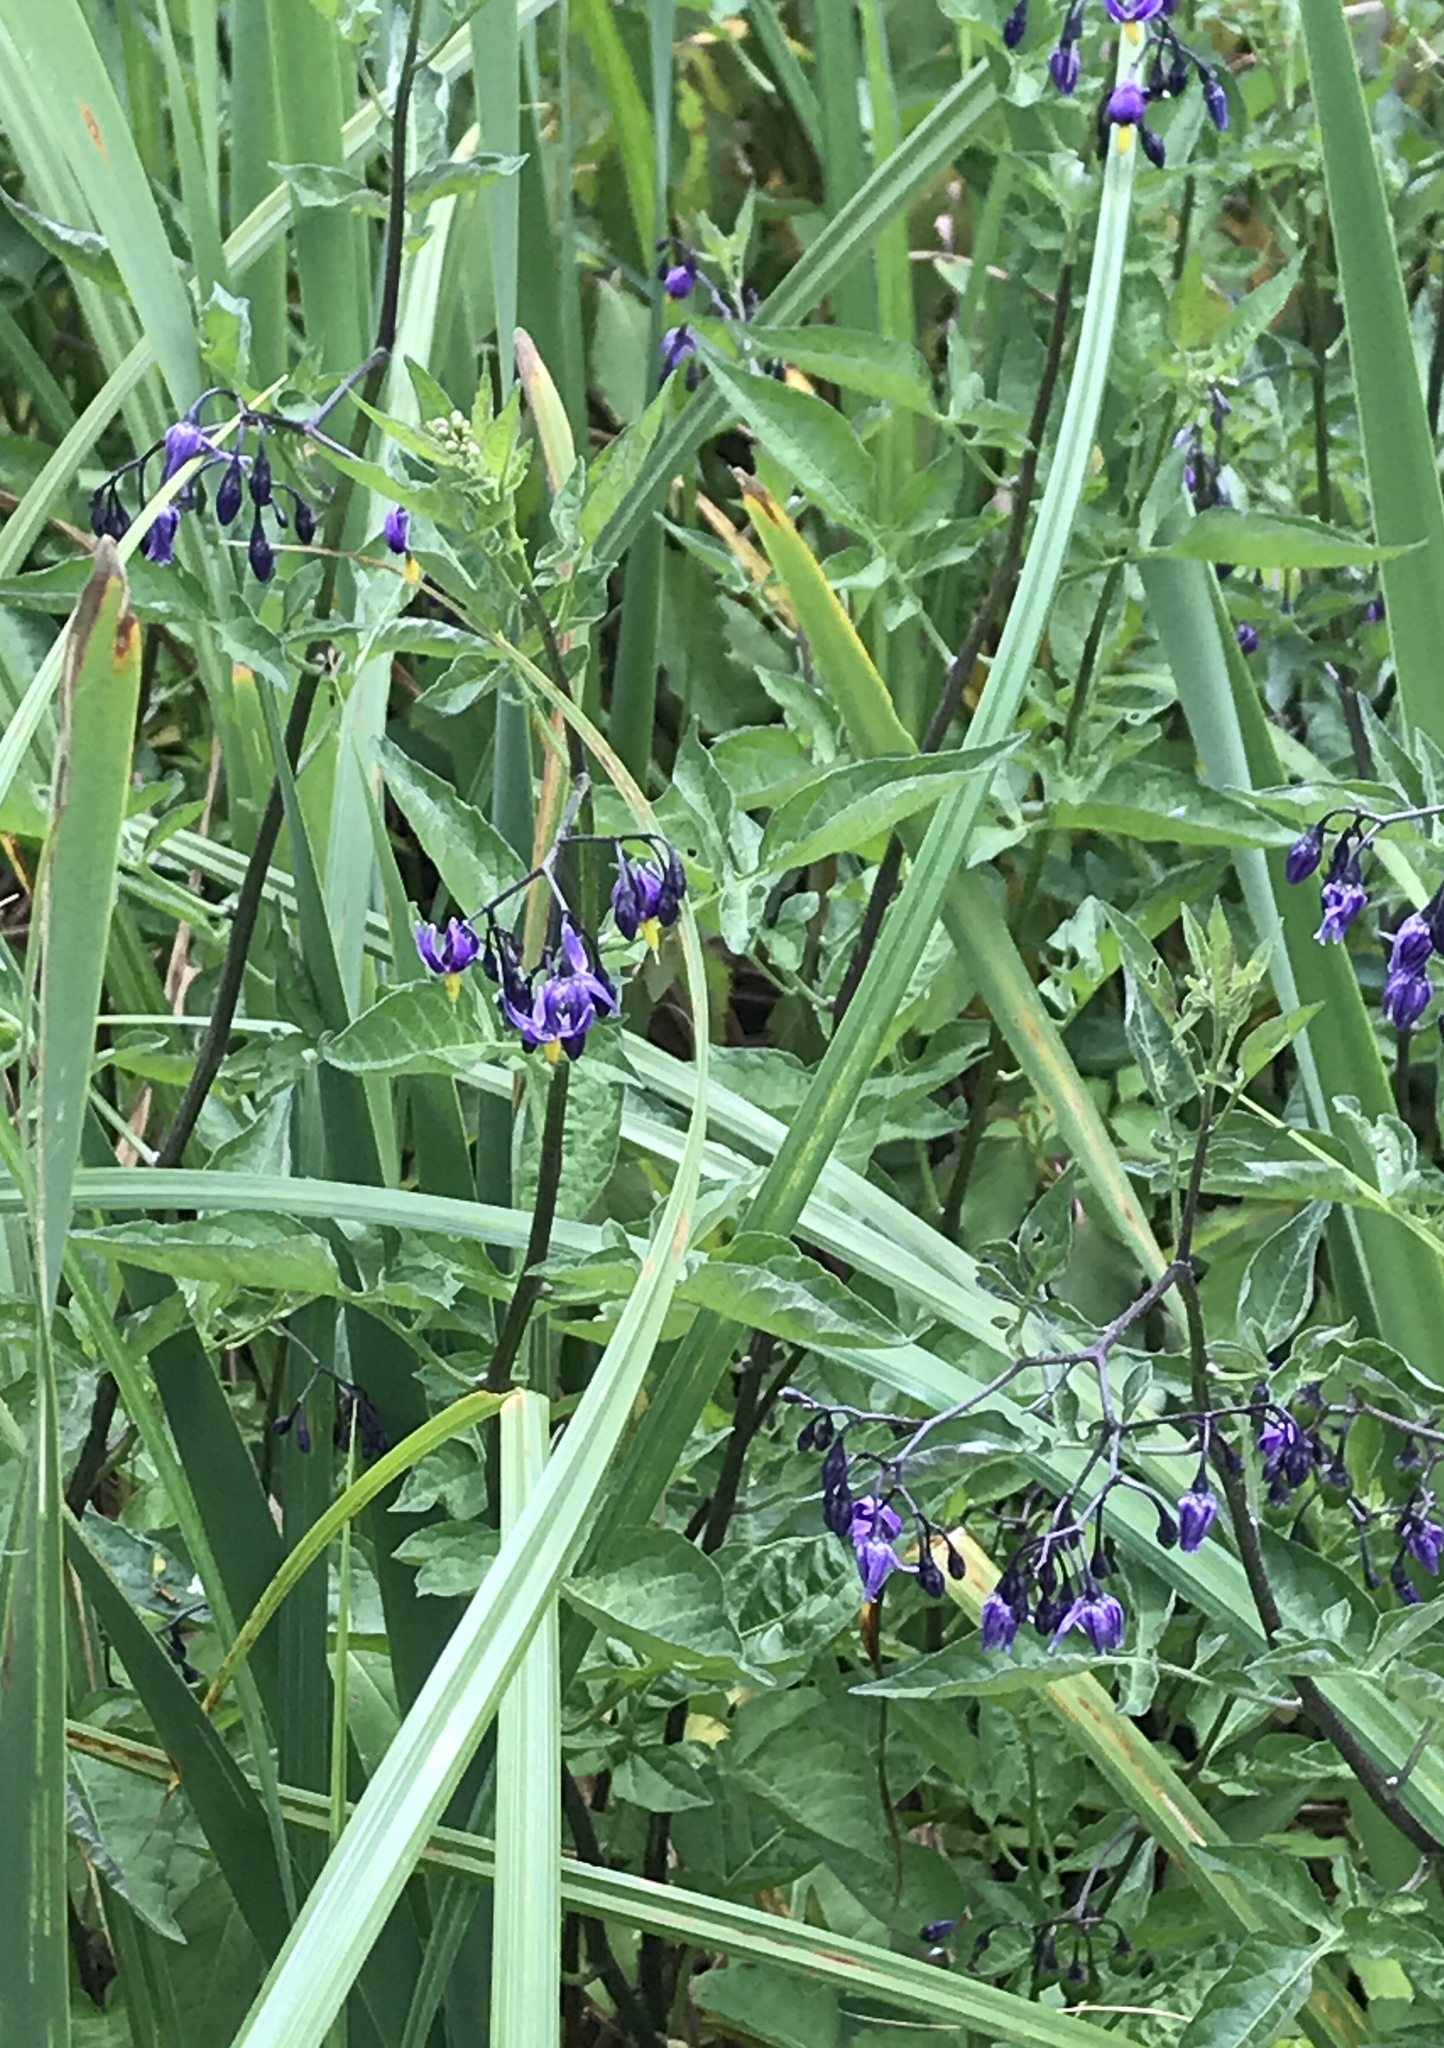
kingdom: Plantae
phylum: Tracheophyta
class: Magnoliopsida
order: Solanales
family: Solanaceae
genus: Solanum
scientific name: Solanum dulcamara
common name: Climbing nightshade
